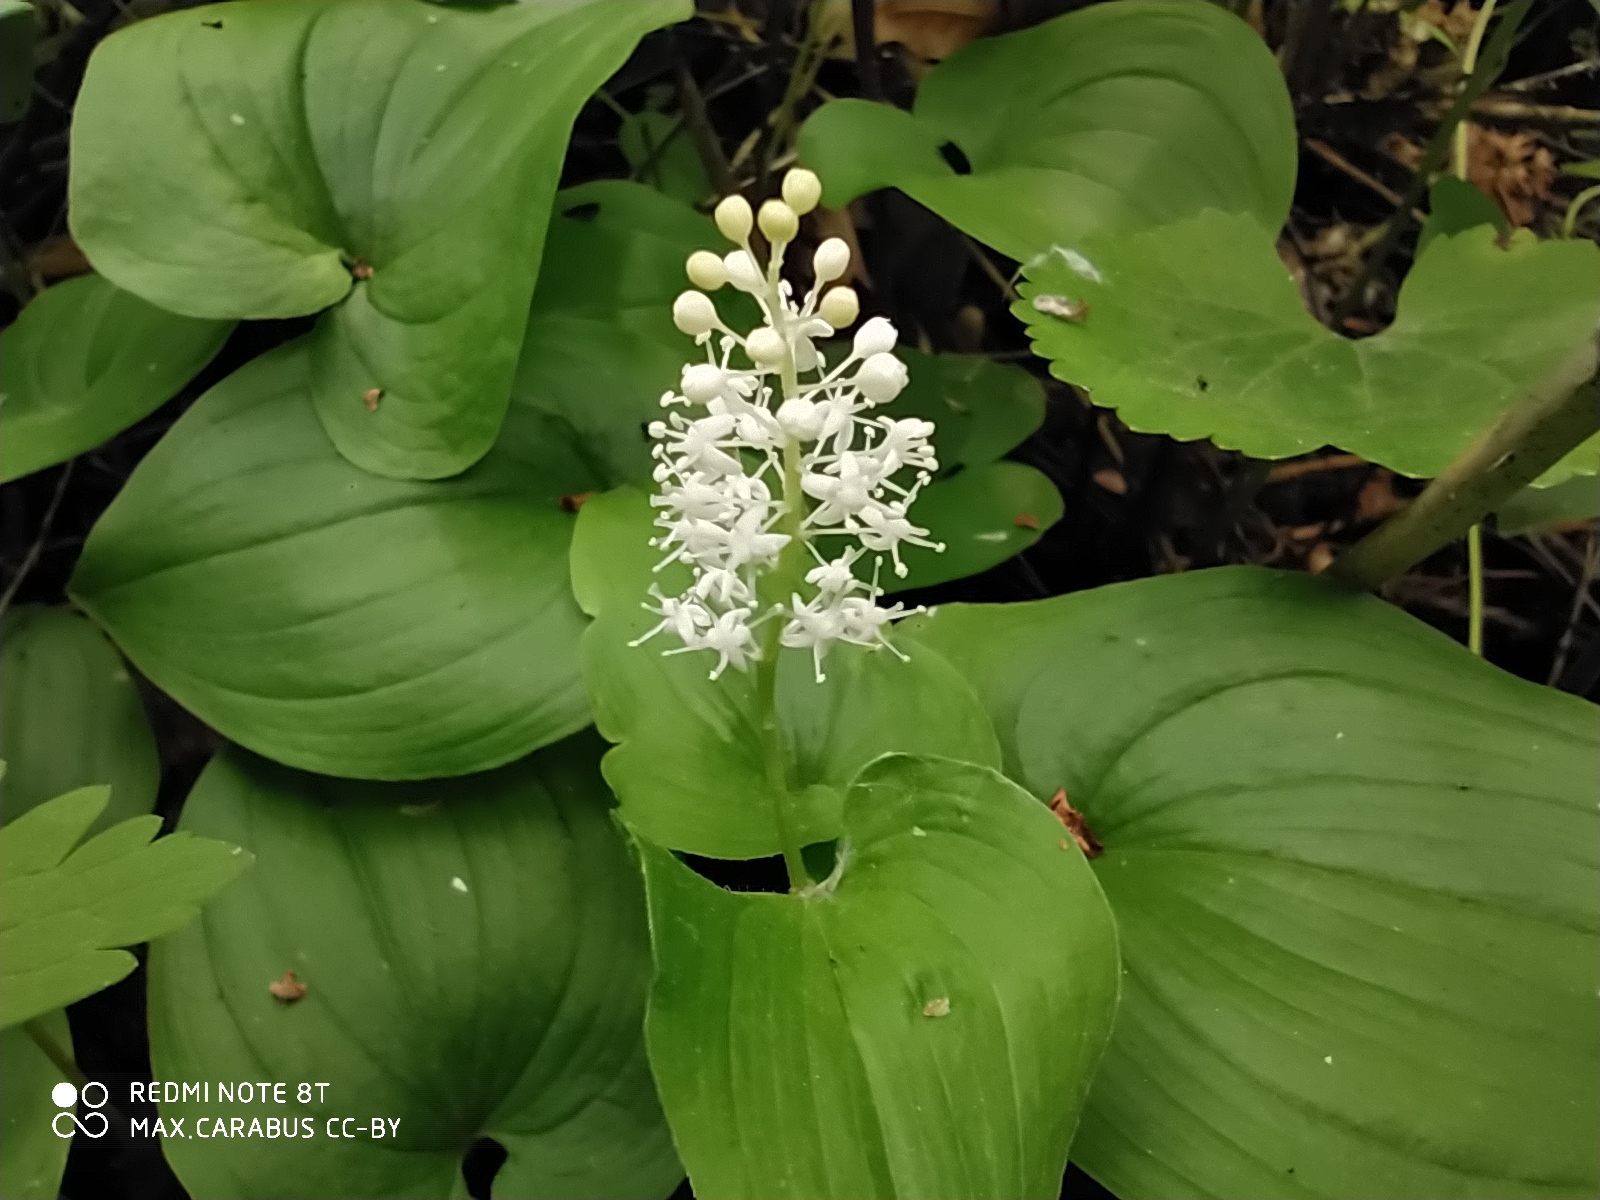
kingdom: Plantae
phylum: Tracheophyta
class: Liliopsida
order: Asparagales
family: Asparagaceae
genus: Maianthemum
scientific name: Maianthemum bifolium
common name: May lily
